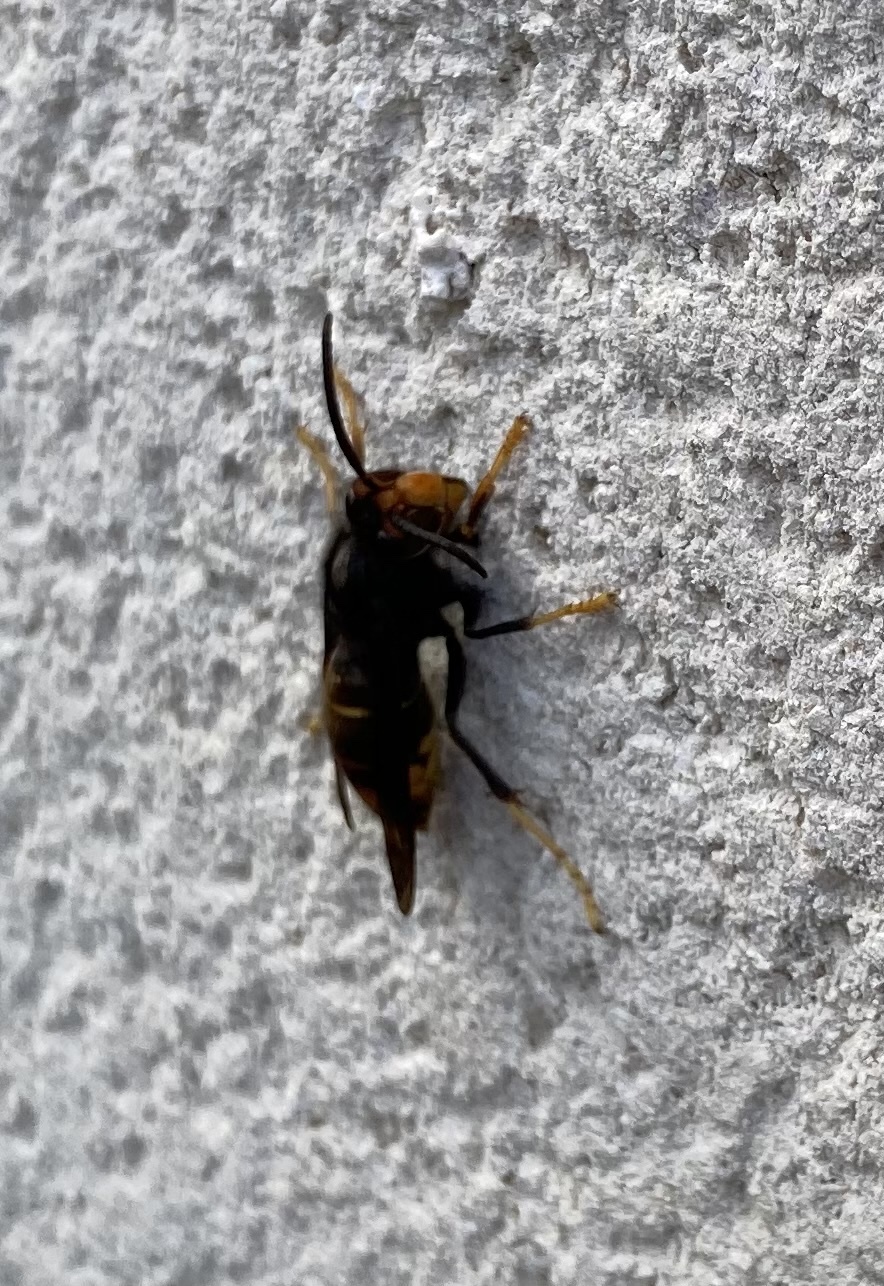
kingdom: Animalia
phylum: Arthropoda
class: Insecta
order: Hymenoptera
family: Vespidae
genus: Vespa
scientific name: Vespa velutina
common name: Asian hornet
